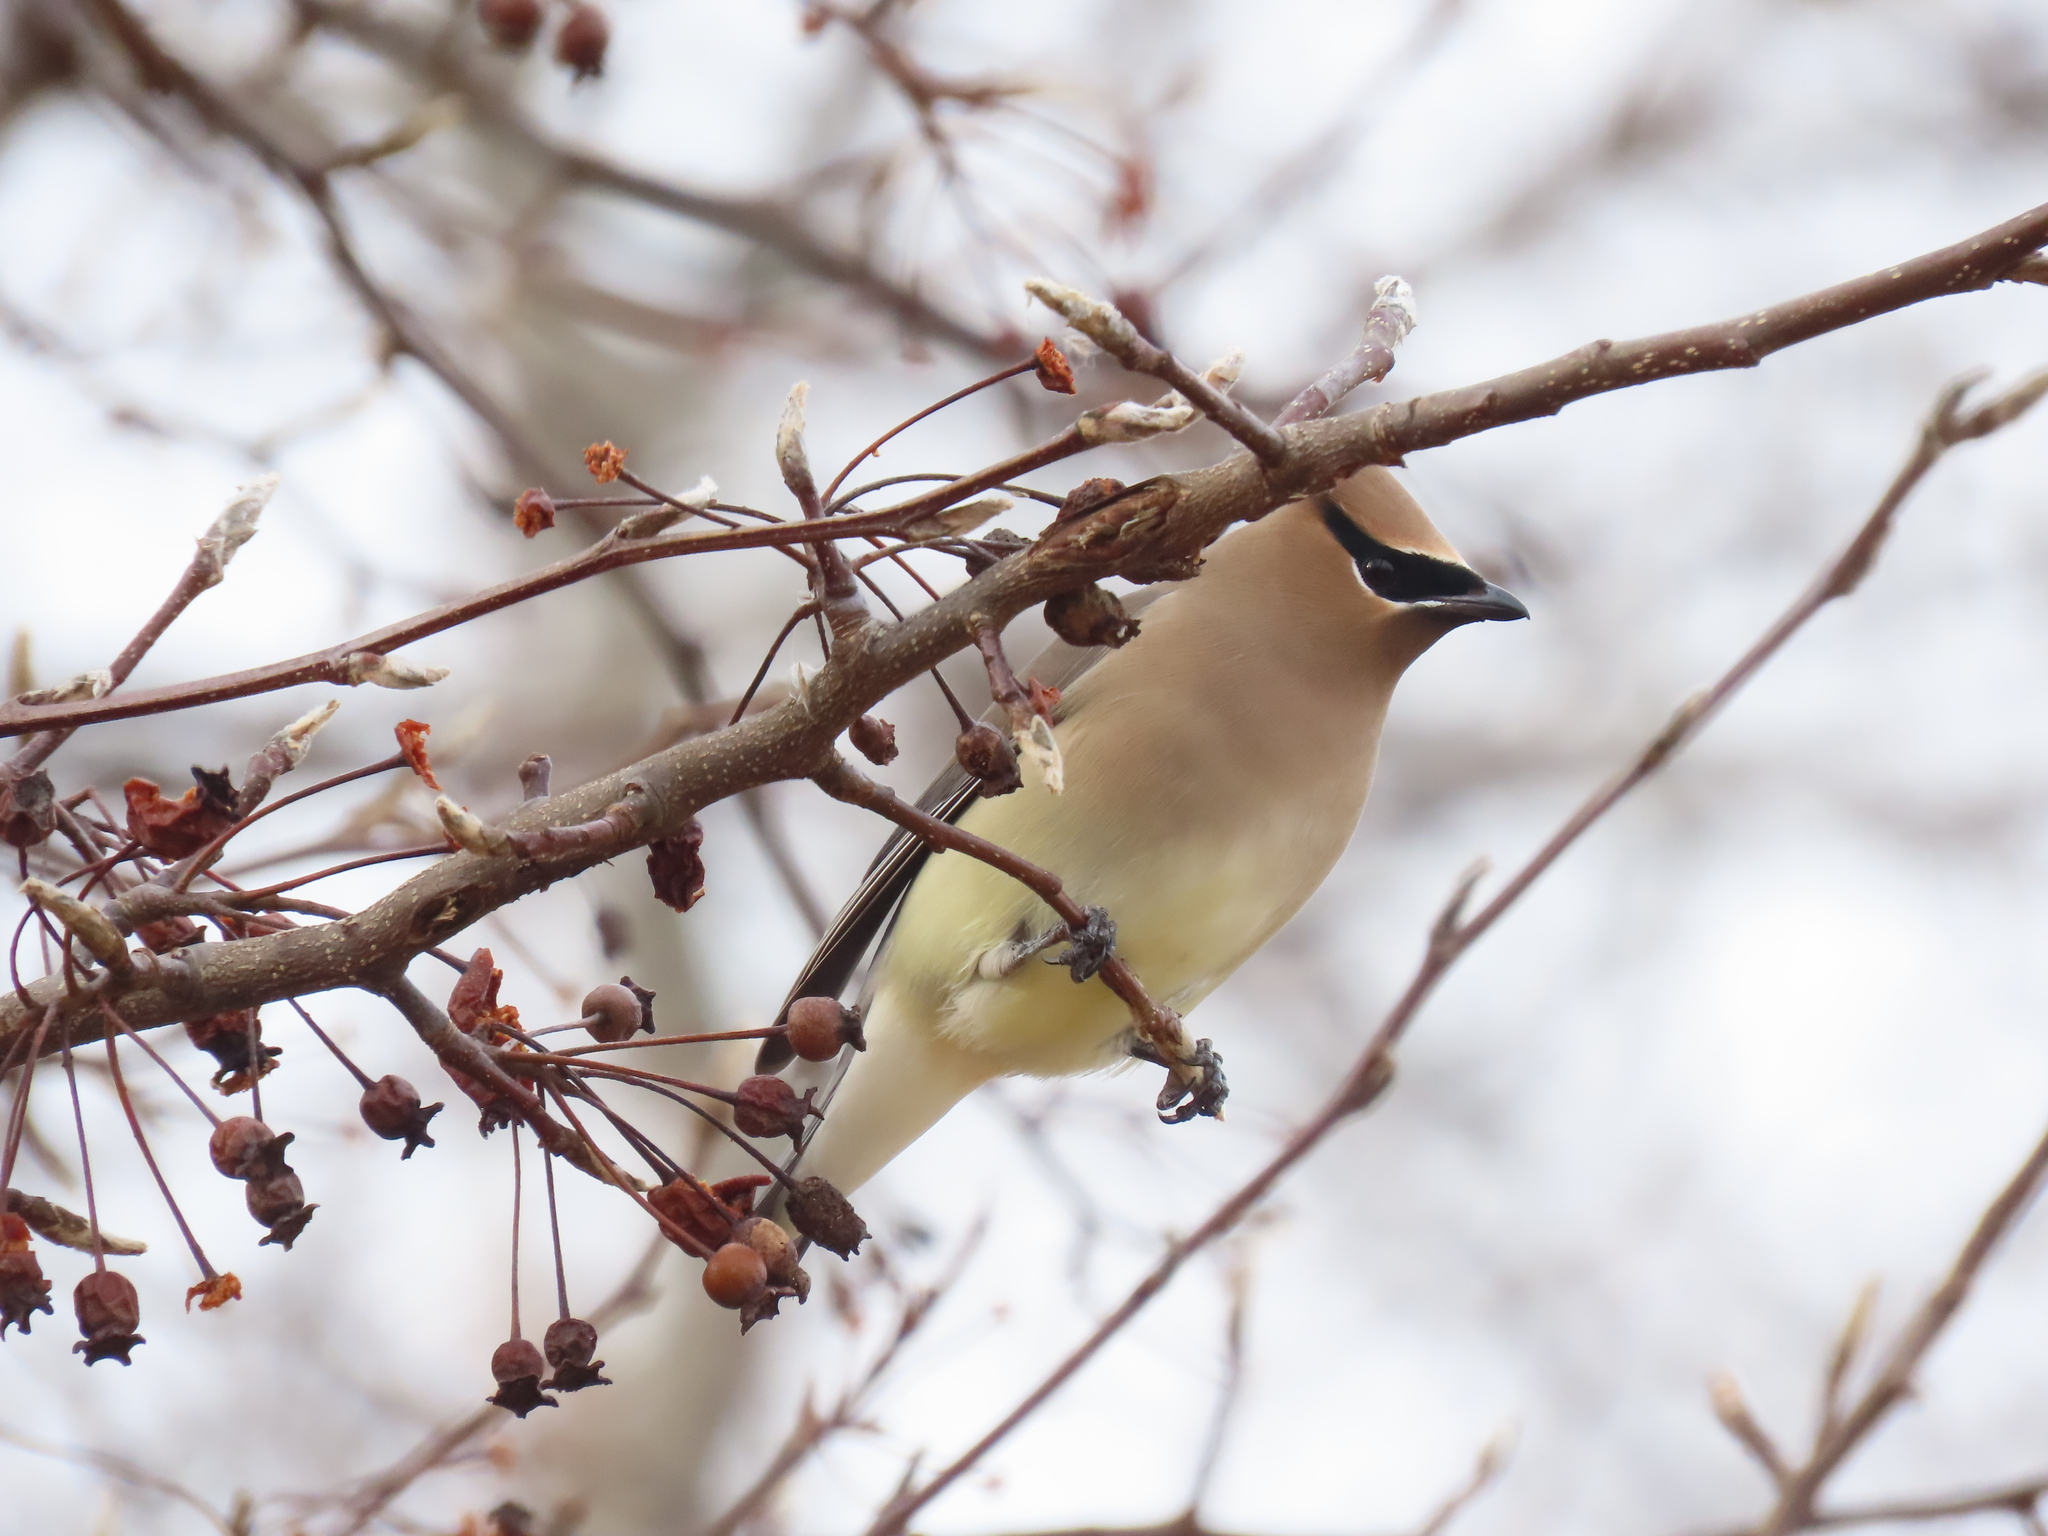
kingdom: Animalia
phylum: Chordata
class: Aves
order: Passeriformes
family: Bombycillidae
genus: Bombycilla
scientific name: Bombycilla cedrorum
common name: Cedar waxwing
